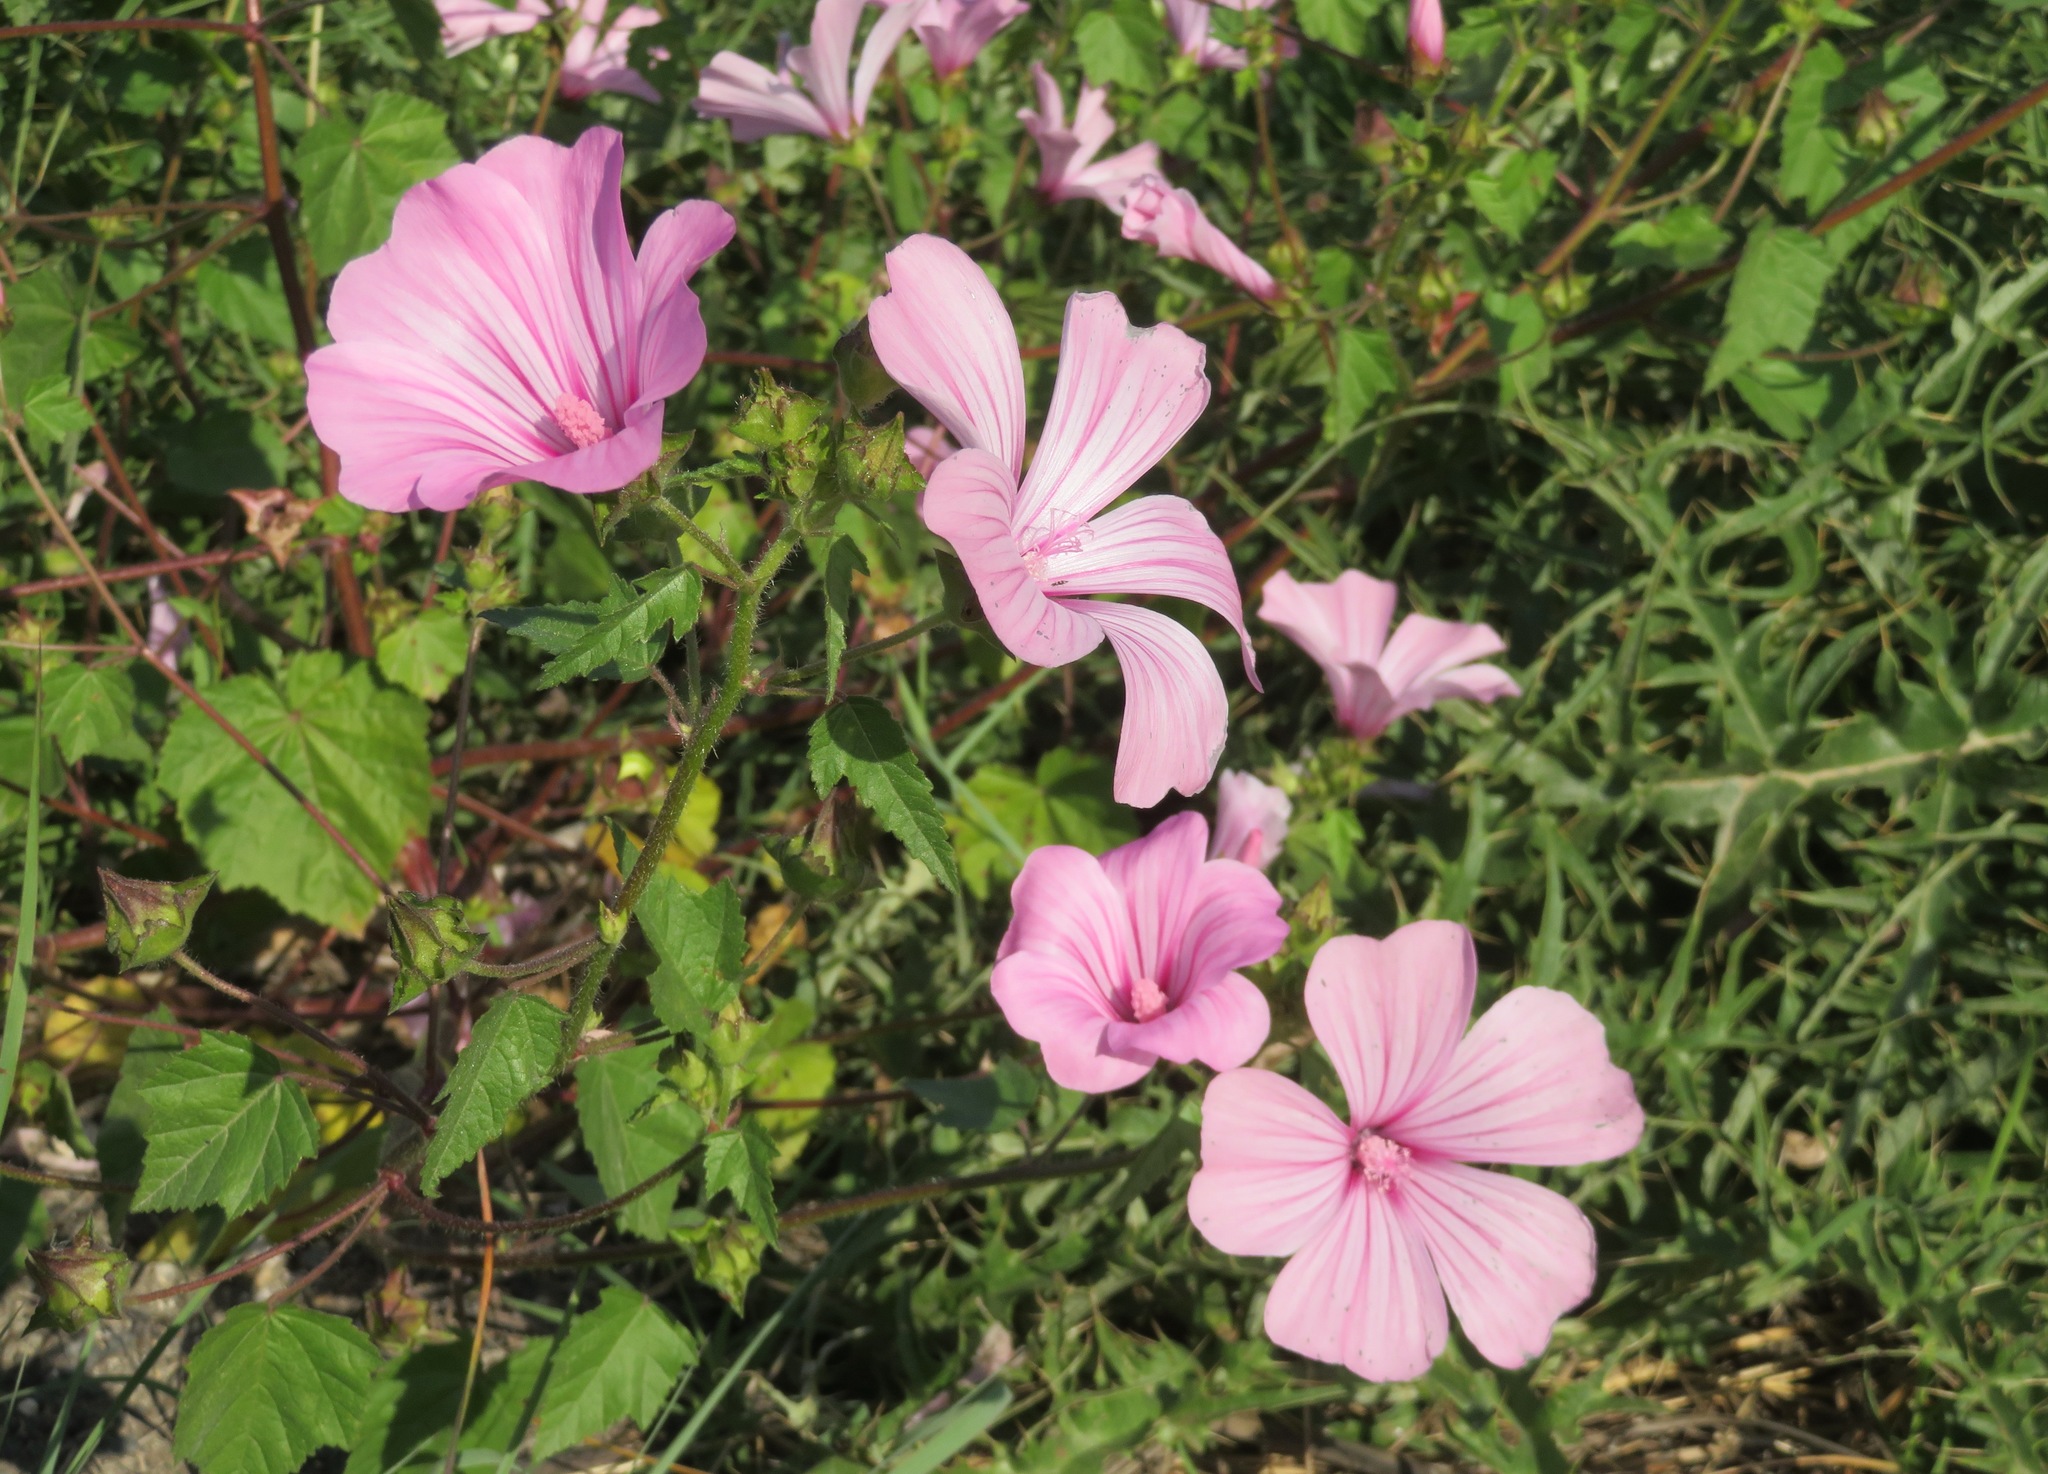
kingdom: Plantae
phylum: Tracheophyta
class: Magnoliopsida
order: Malvales
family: Malvaceae
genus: Malva
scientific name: Malva trimestris
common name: Royal mallow
